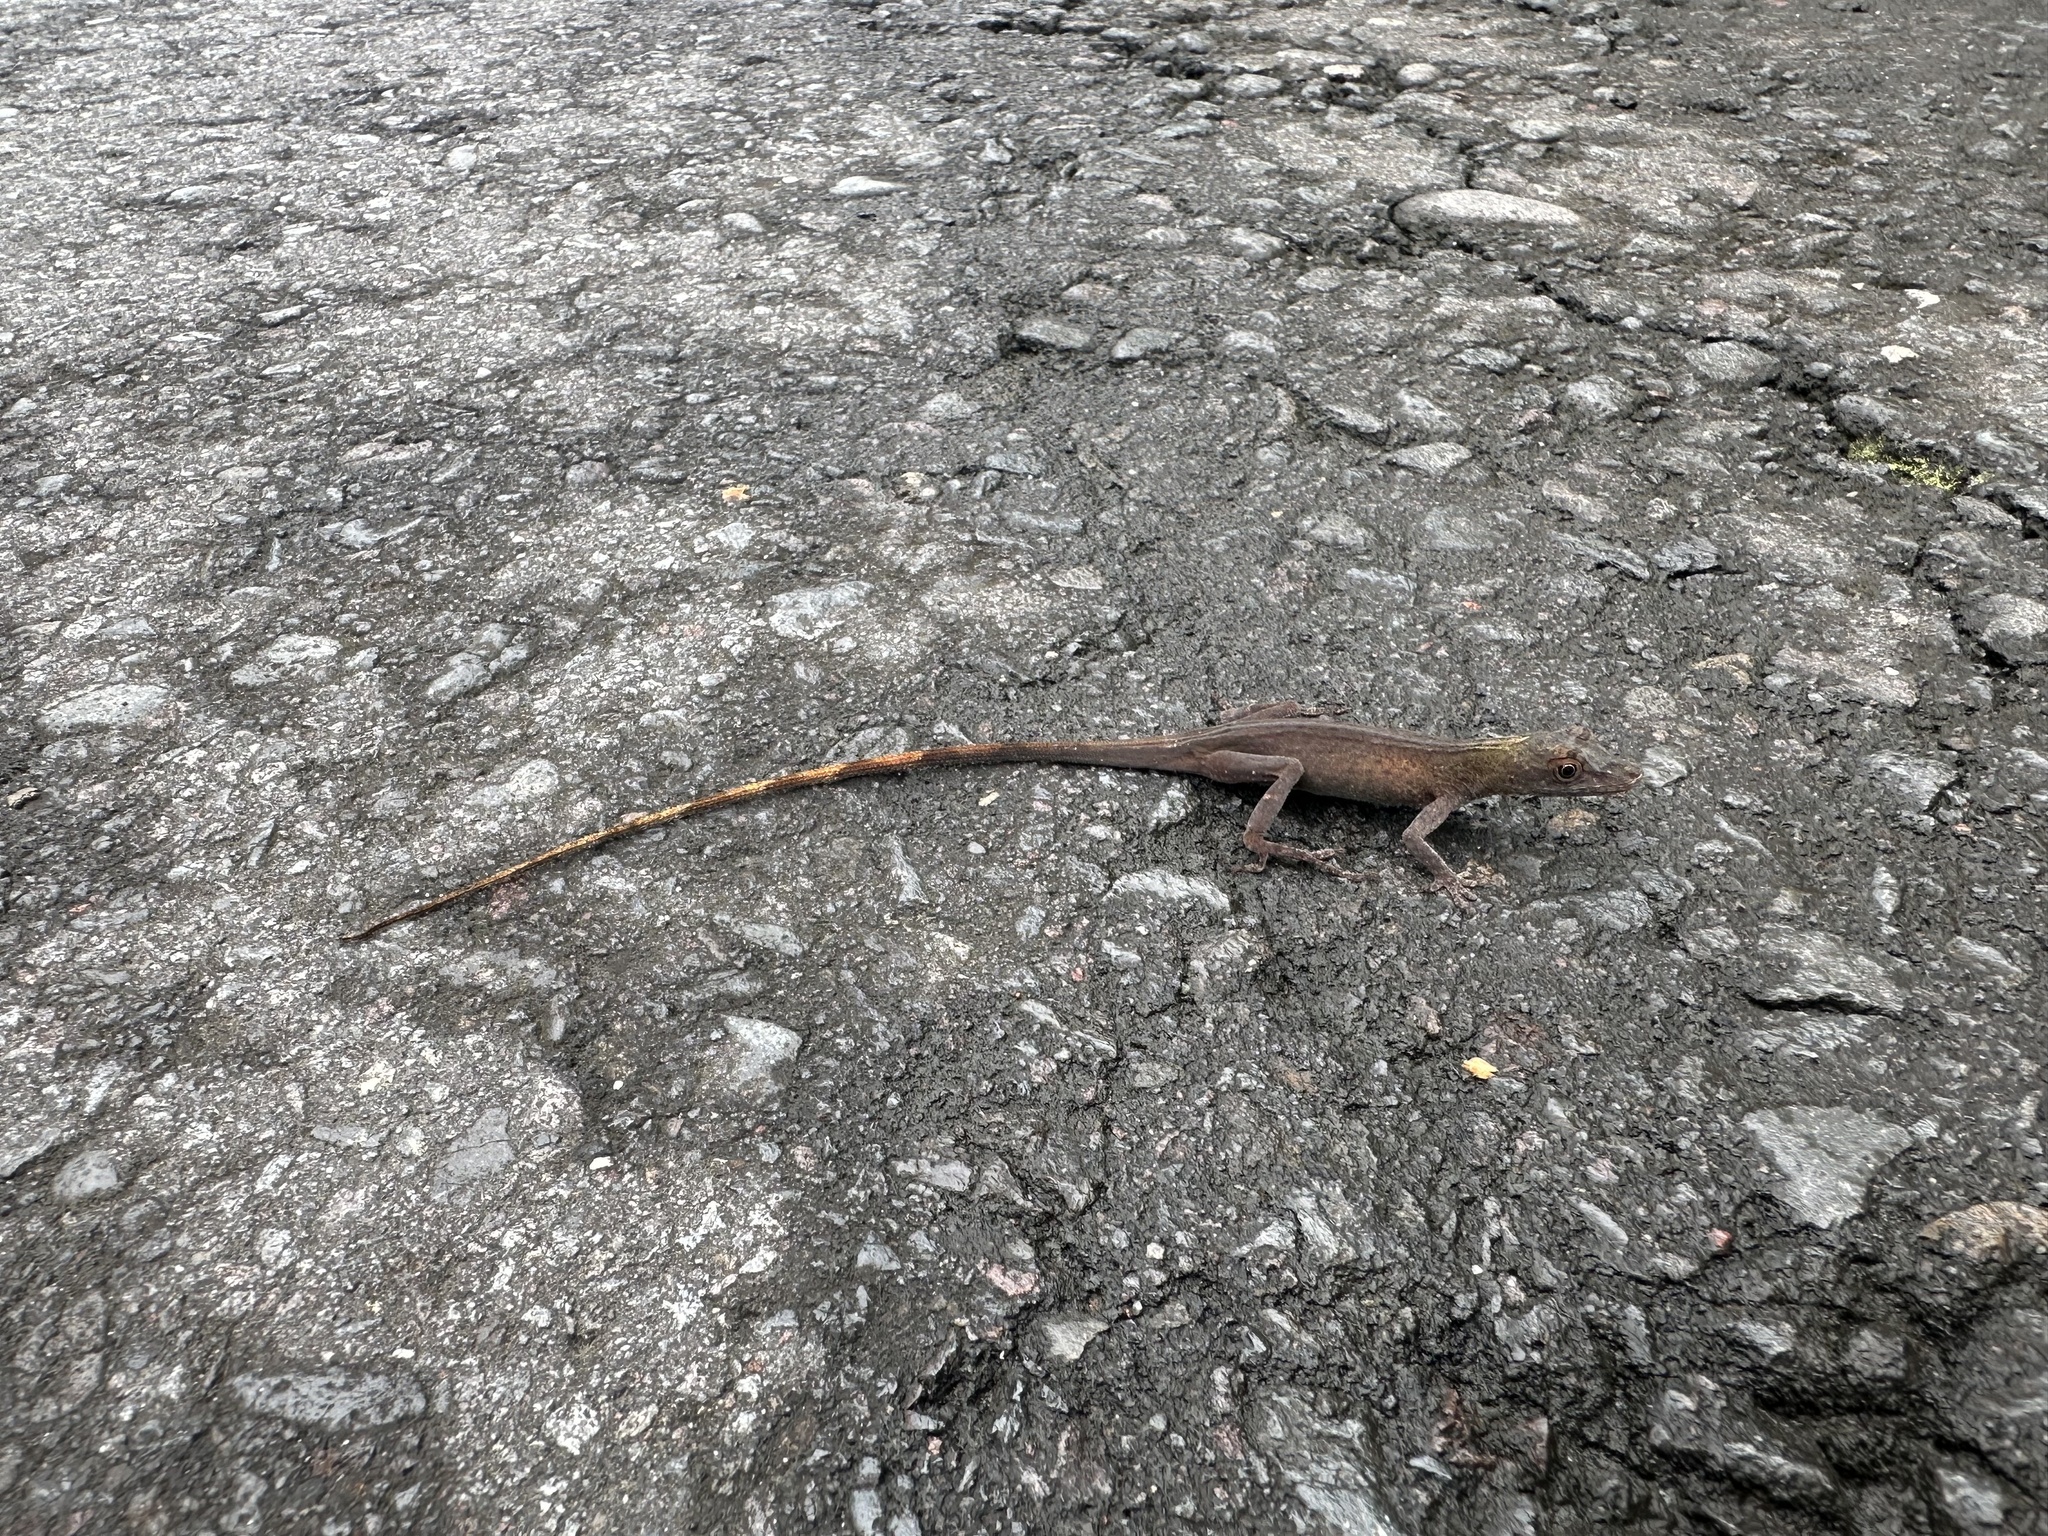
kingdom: Animalia
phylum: Chordata
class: Squamata
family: Dactyloidae
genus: Anolis
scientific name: Anolis fuscoauratus
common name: Brown-eared anole
